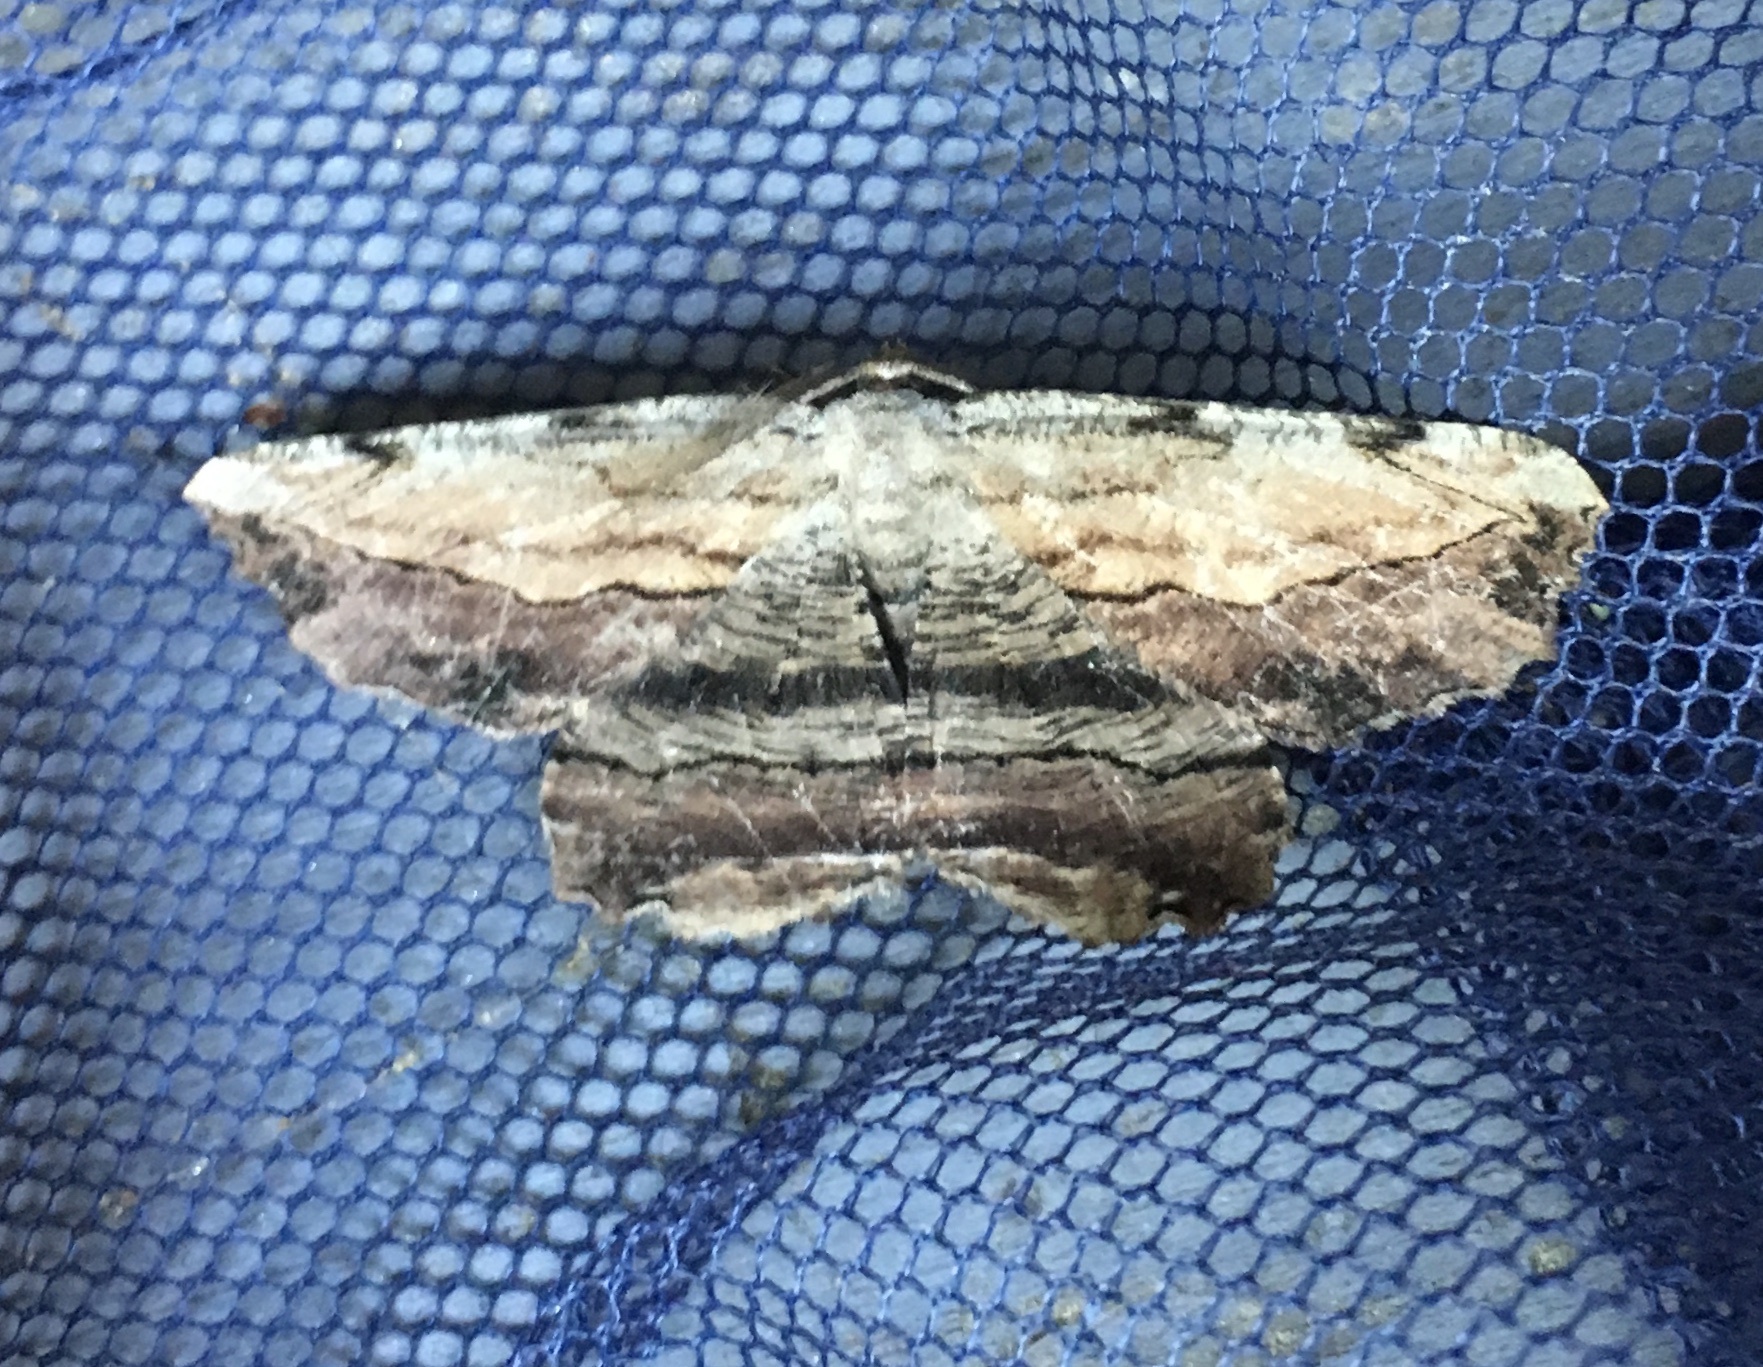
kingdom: Animalia
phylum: Arthropoda
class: Insecta
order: Lepidoptera
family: Geometridae
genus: Lytrosis
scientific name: Lytrosis unitaria
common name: Common lytrosis
